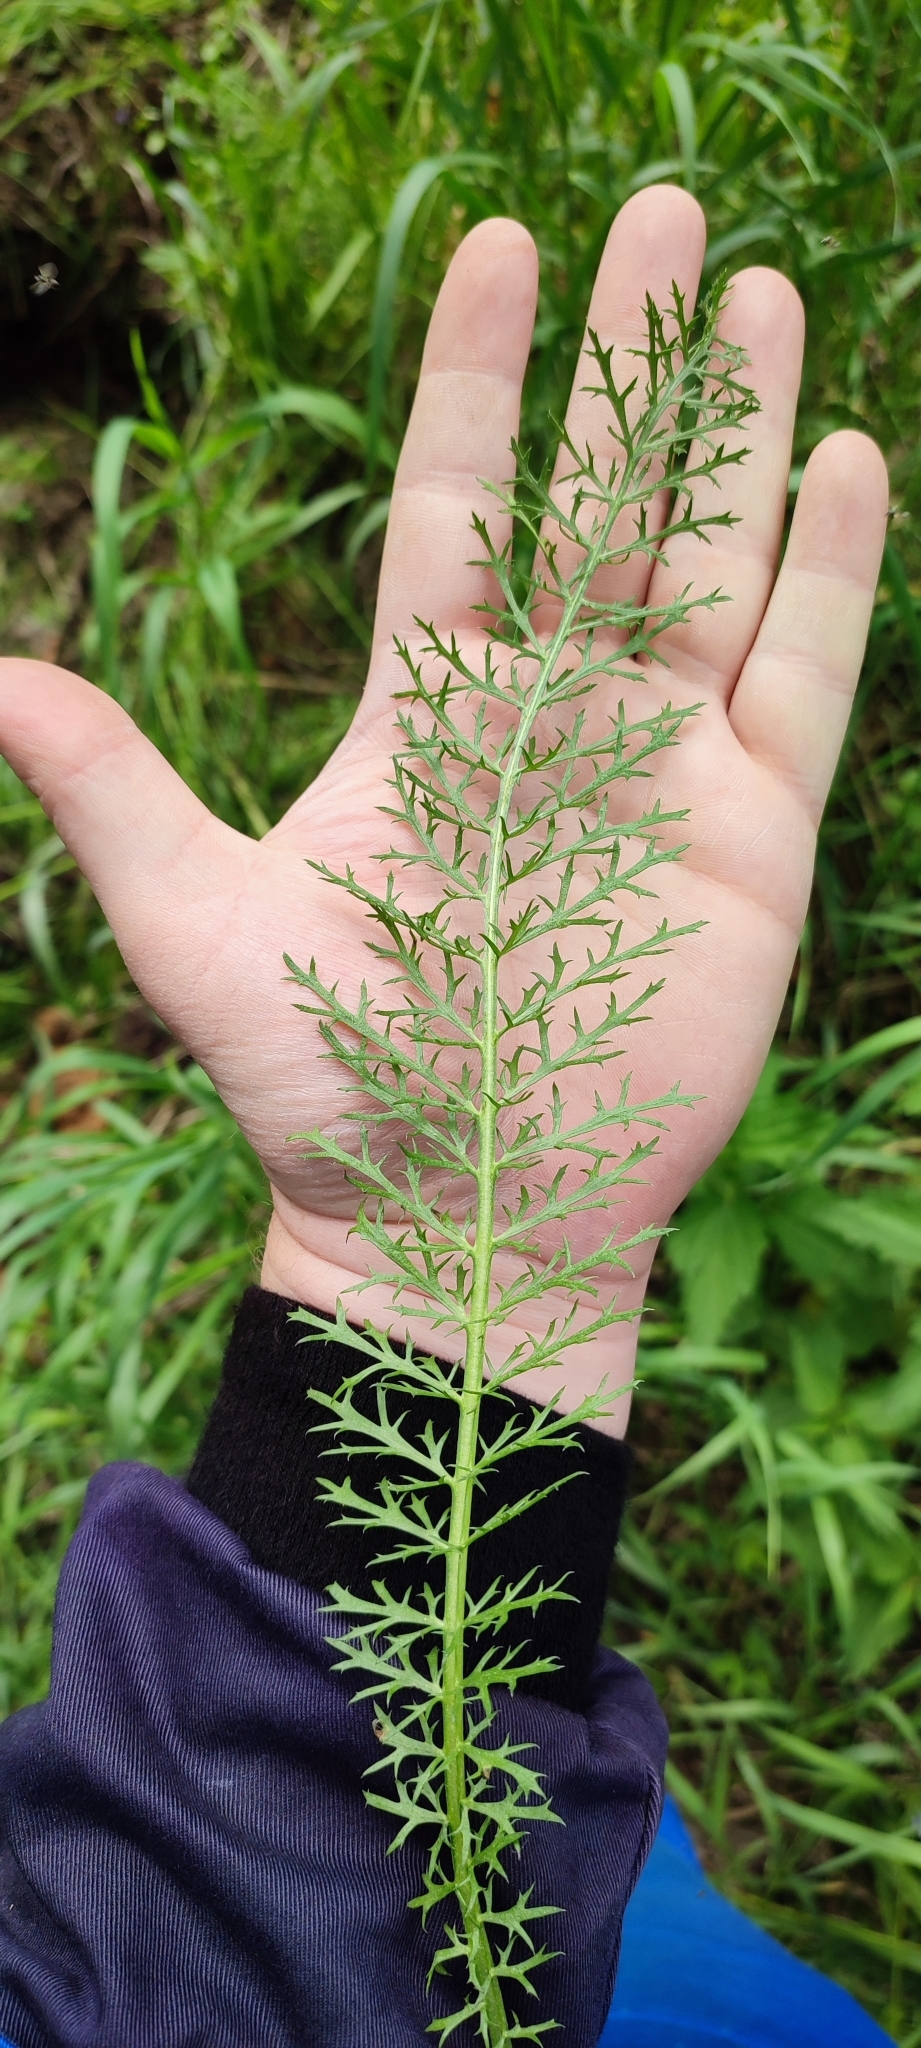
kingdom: Plantae
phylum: Tracheophyta
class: Magnoliopsida
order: Asterales
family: Asteraceae
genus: Achillea
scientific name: Achillea asiatica
